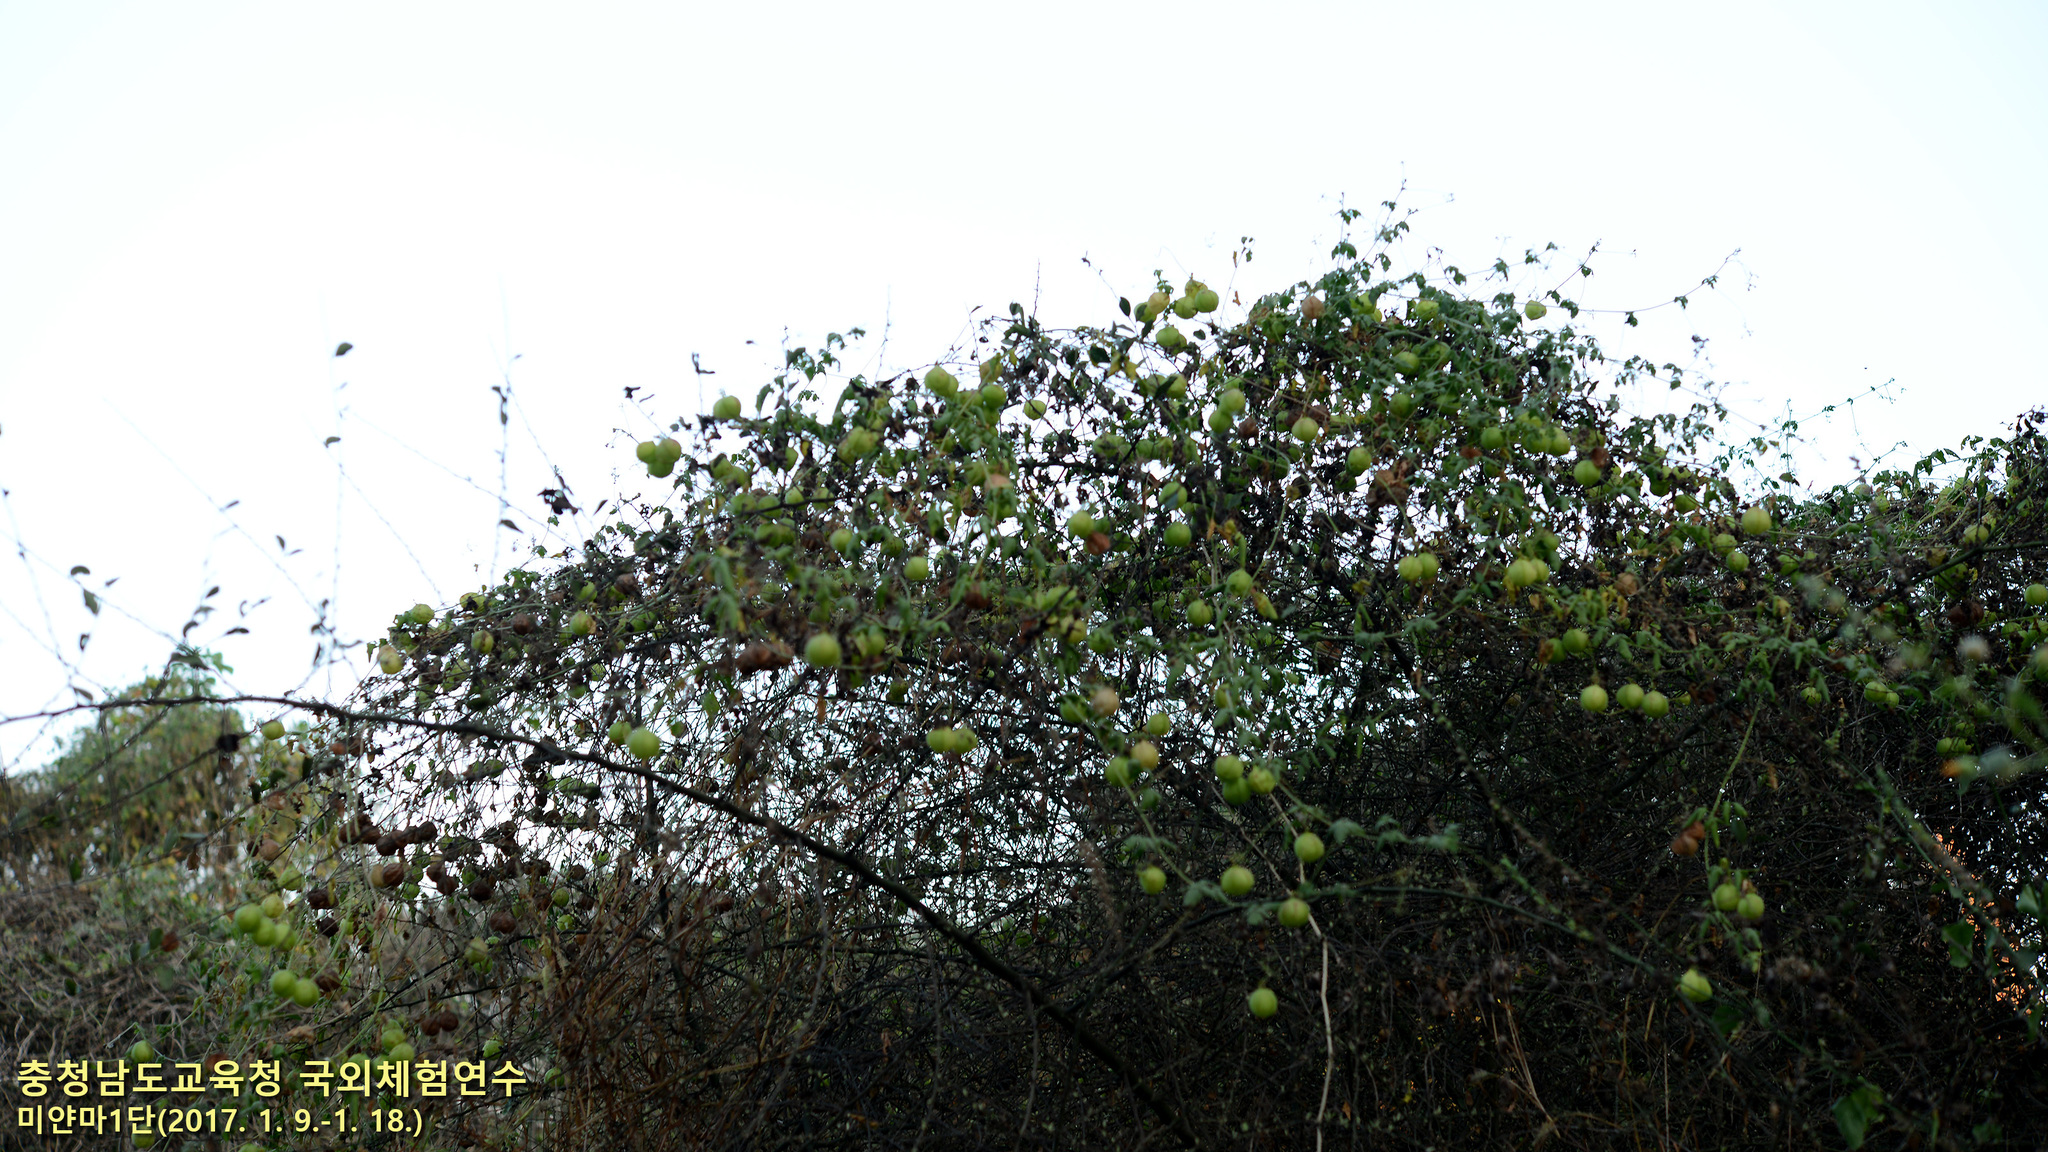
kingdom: Plantae
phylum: Tracheophyta
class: Magnoliopsida
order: Sapindales
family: Sapindaceae
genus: Cardiospermum
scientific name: Cardiospermum halicacabum
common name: Balloon vine
